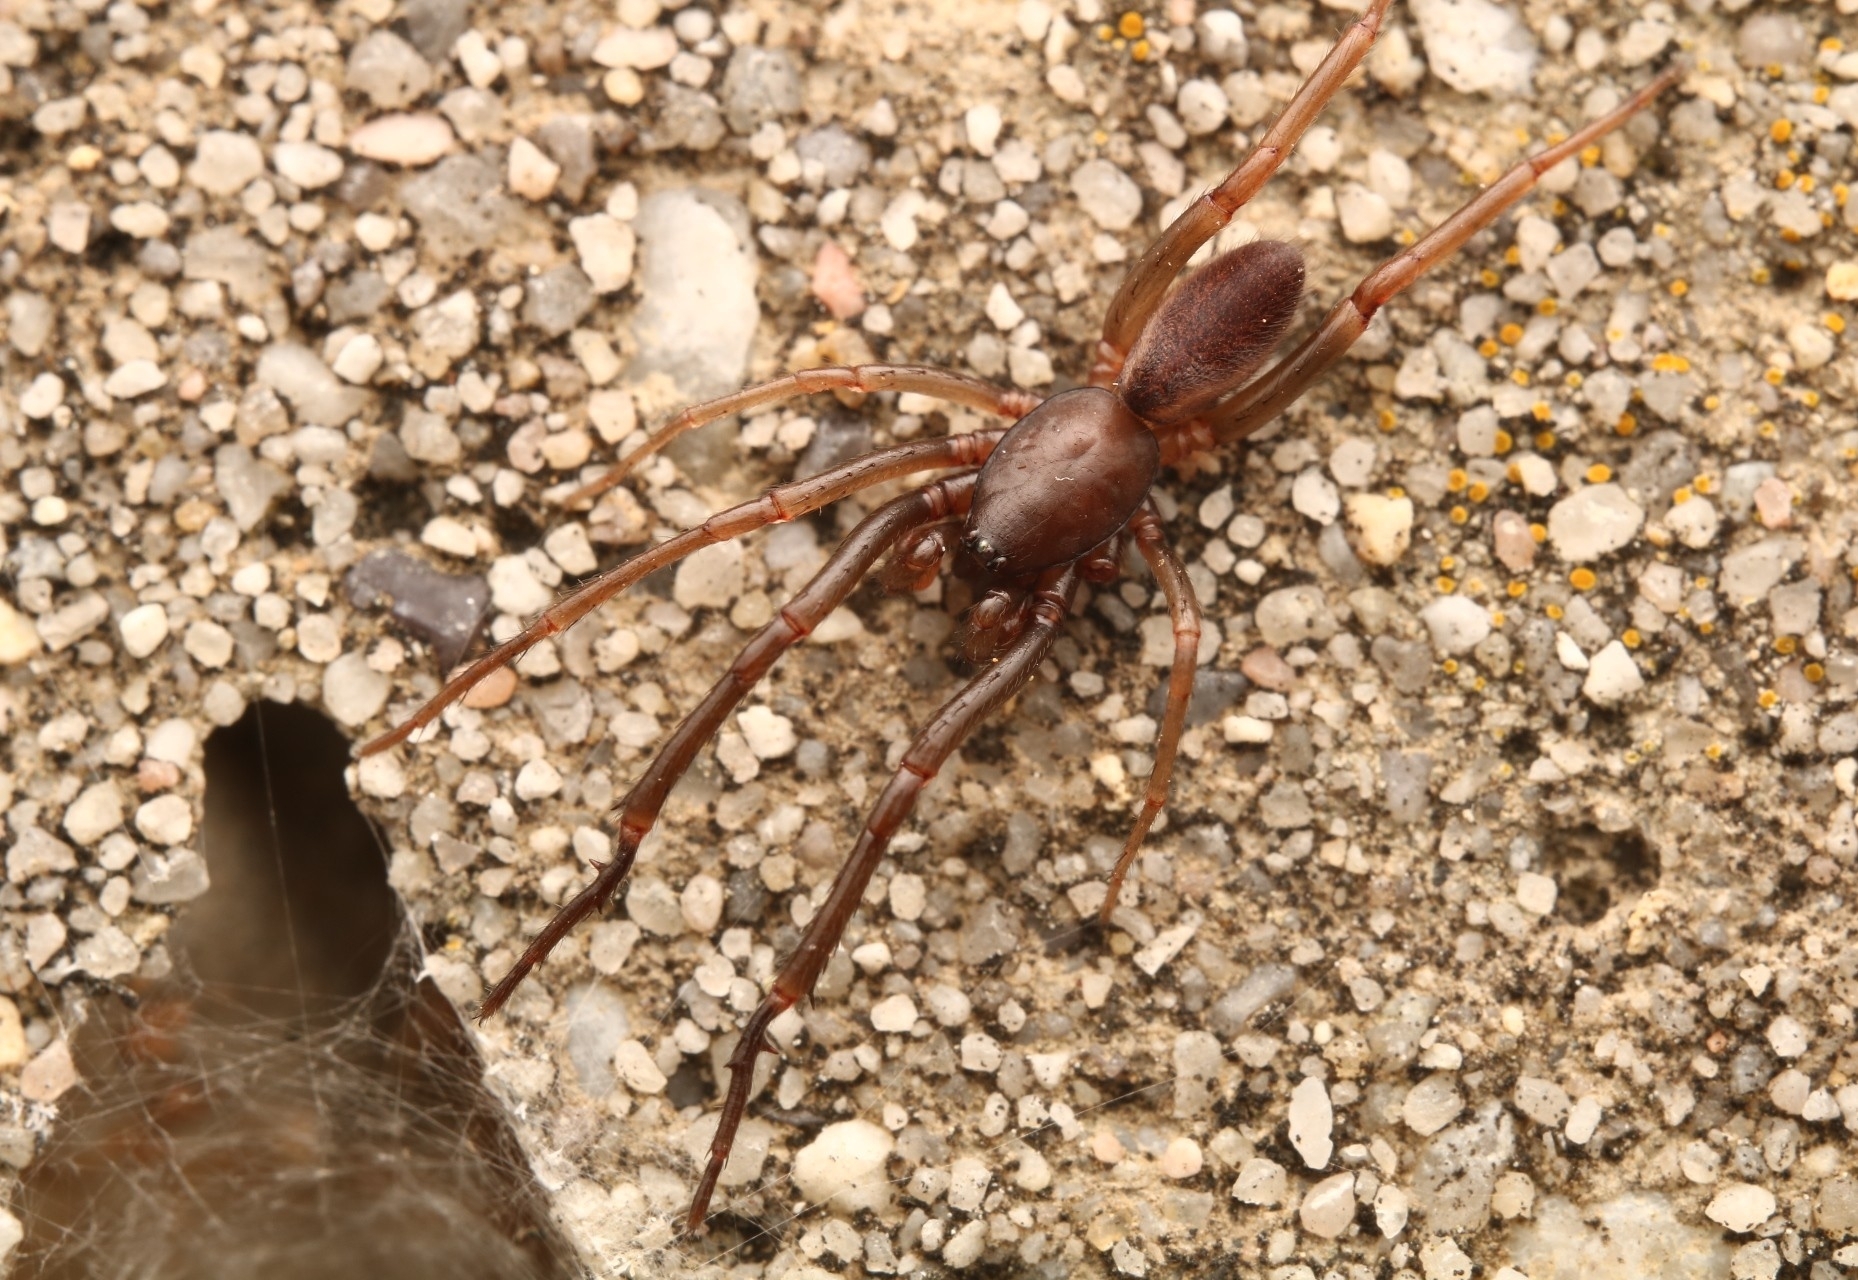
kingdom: Animalia
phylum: Arthropoda
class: Arachnida
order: Araneae
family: Segestriidae
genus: Ariadna
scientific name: Ariadna bicolor
